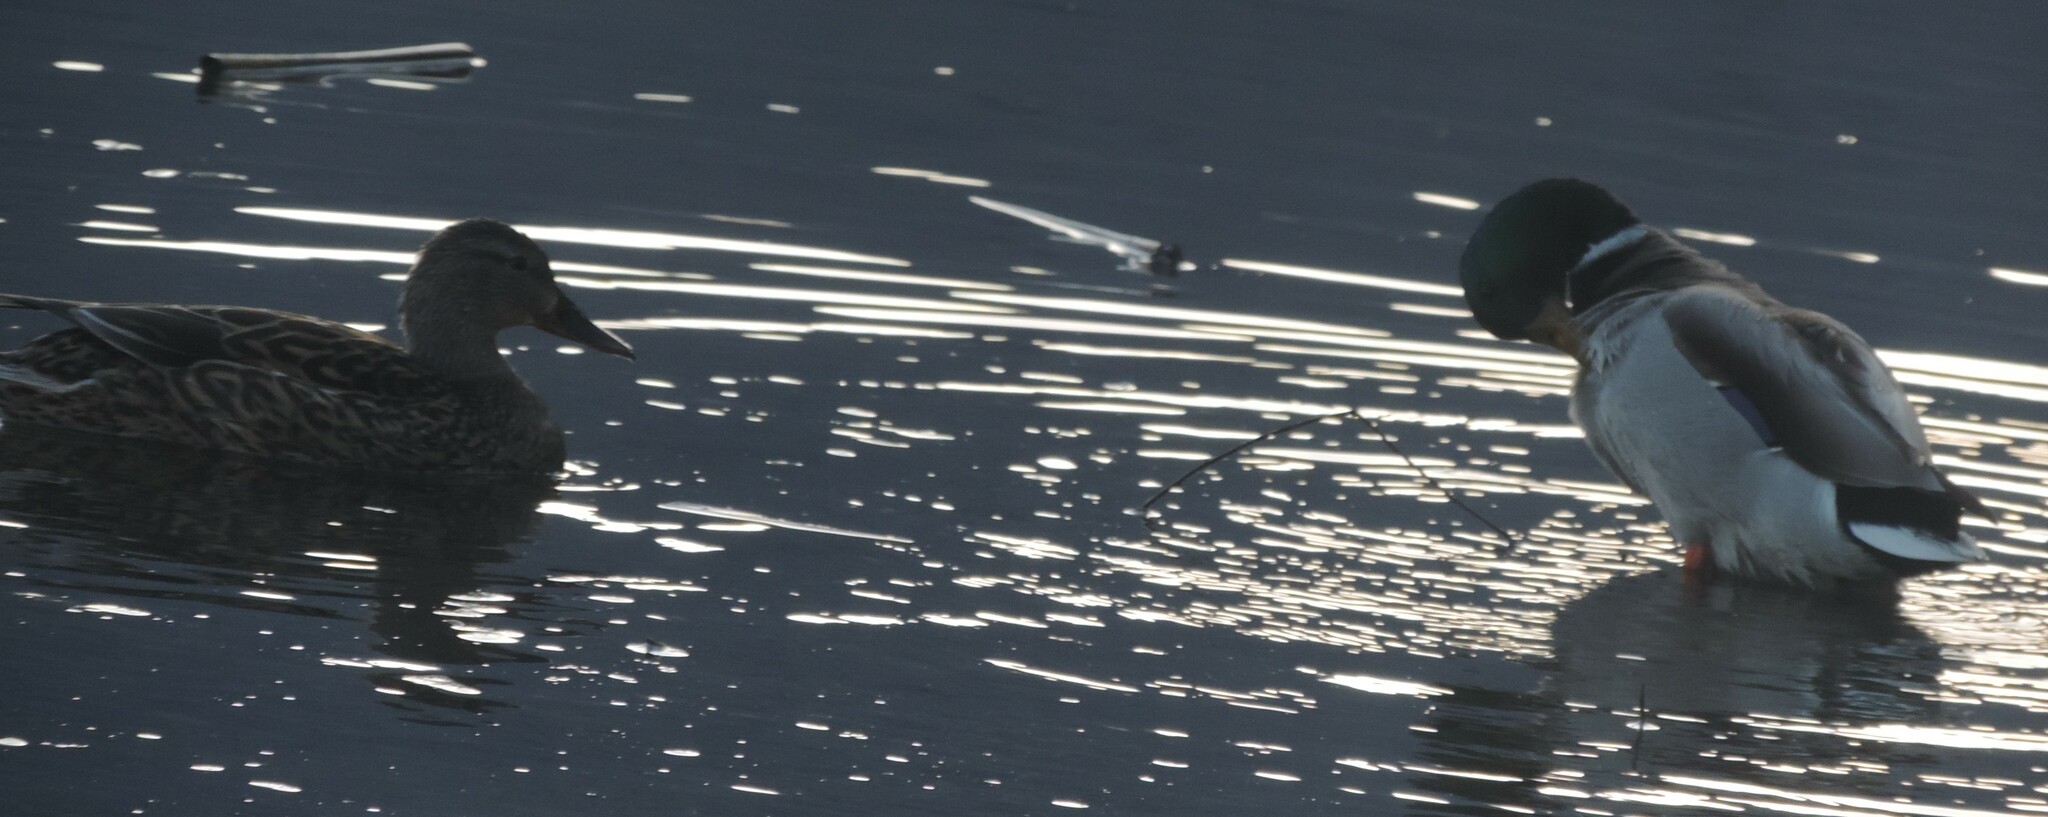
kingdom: Animalia
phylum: Chordata
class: Aves
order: Anseriformes
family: Anatidae
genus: Anas
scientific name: Anas platyrhynchos
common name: Mallard
